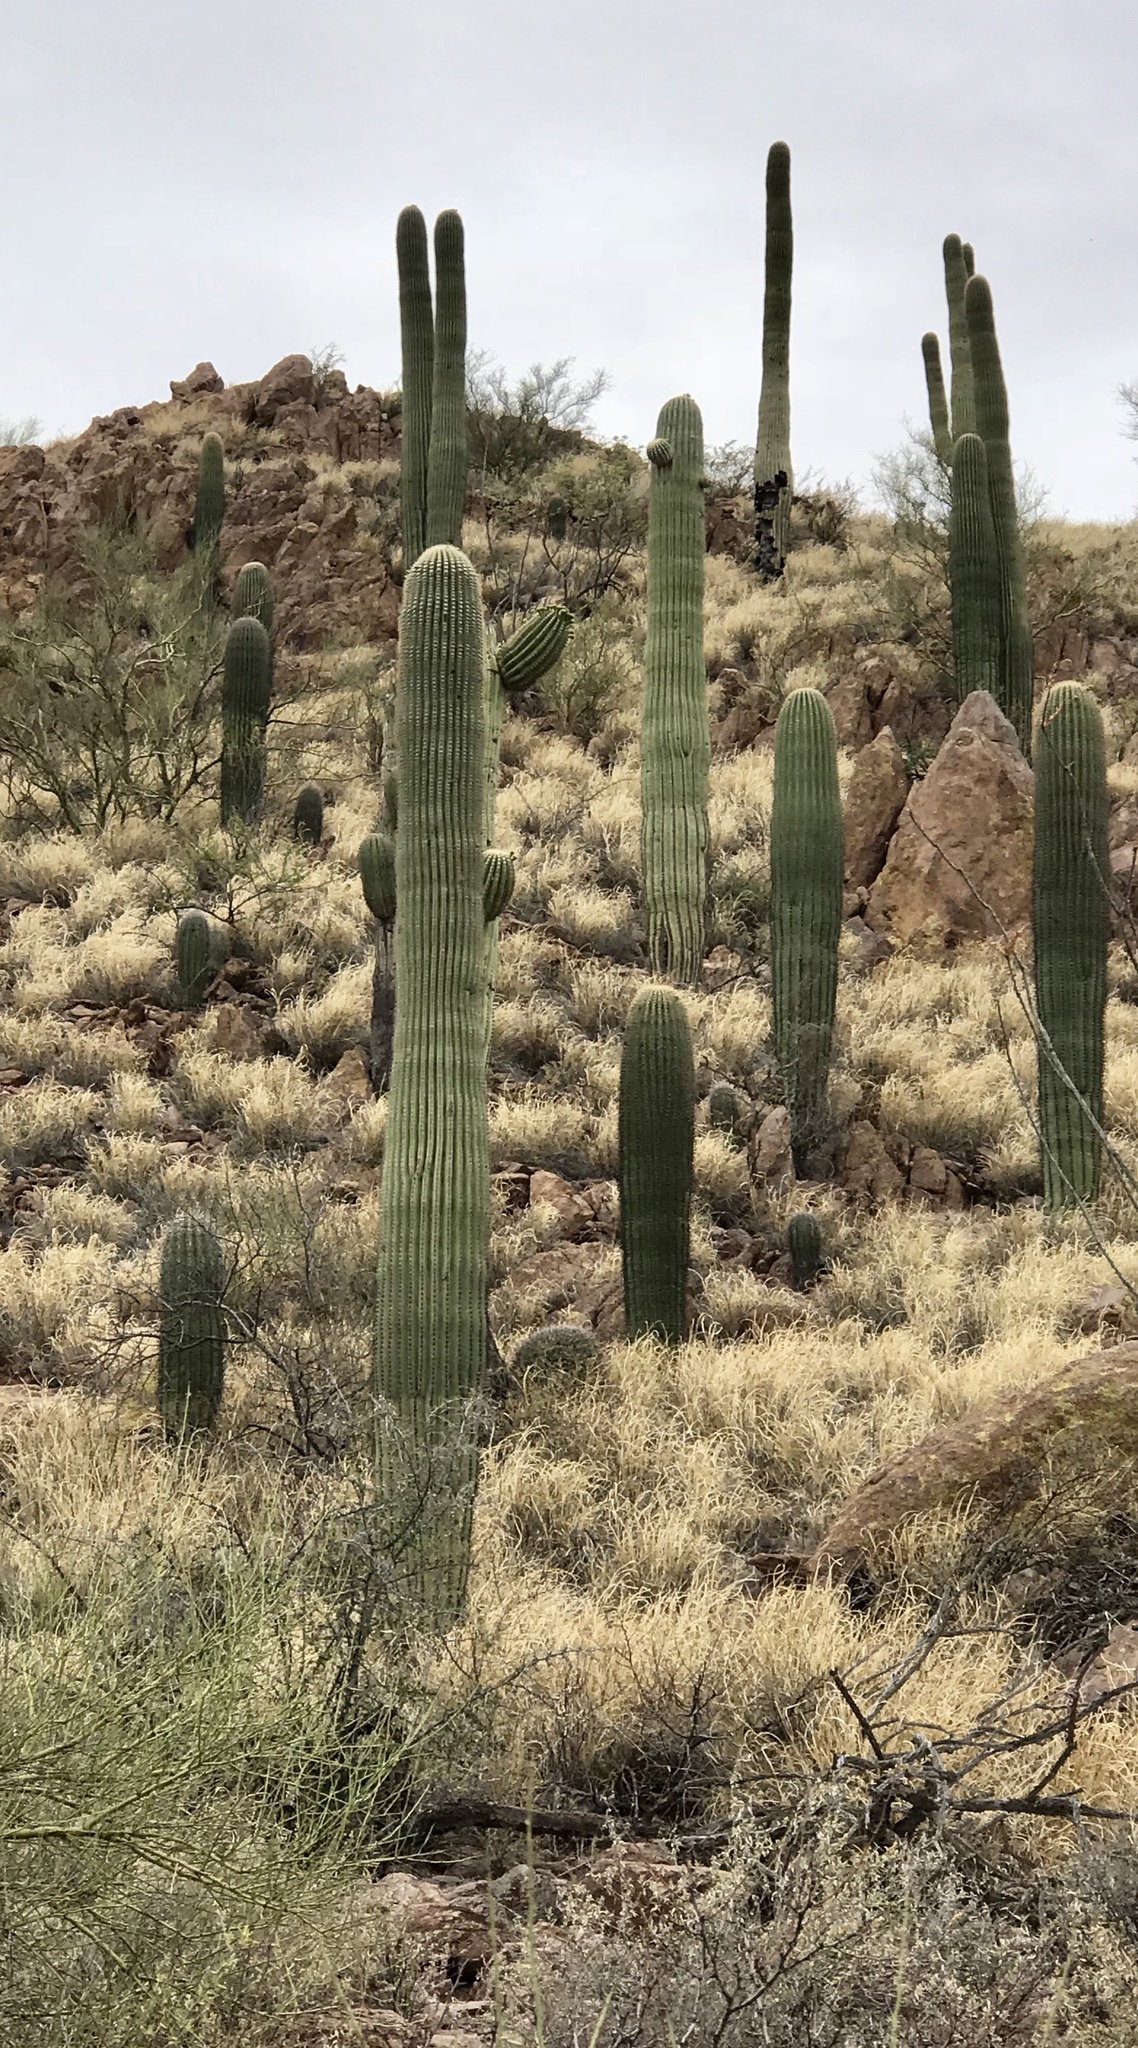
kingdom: Plantae
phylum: Tracheophyta
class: Magnoliopsida
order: Caryophyllales
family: Cactaceae
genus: Carnegiea
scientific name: Carnegiea gigantea
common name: Saguaro
